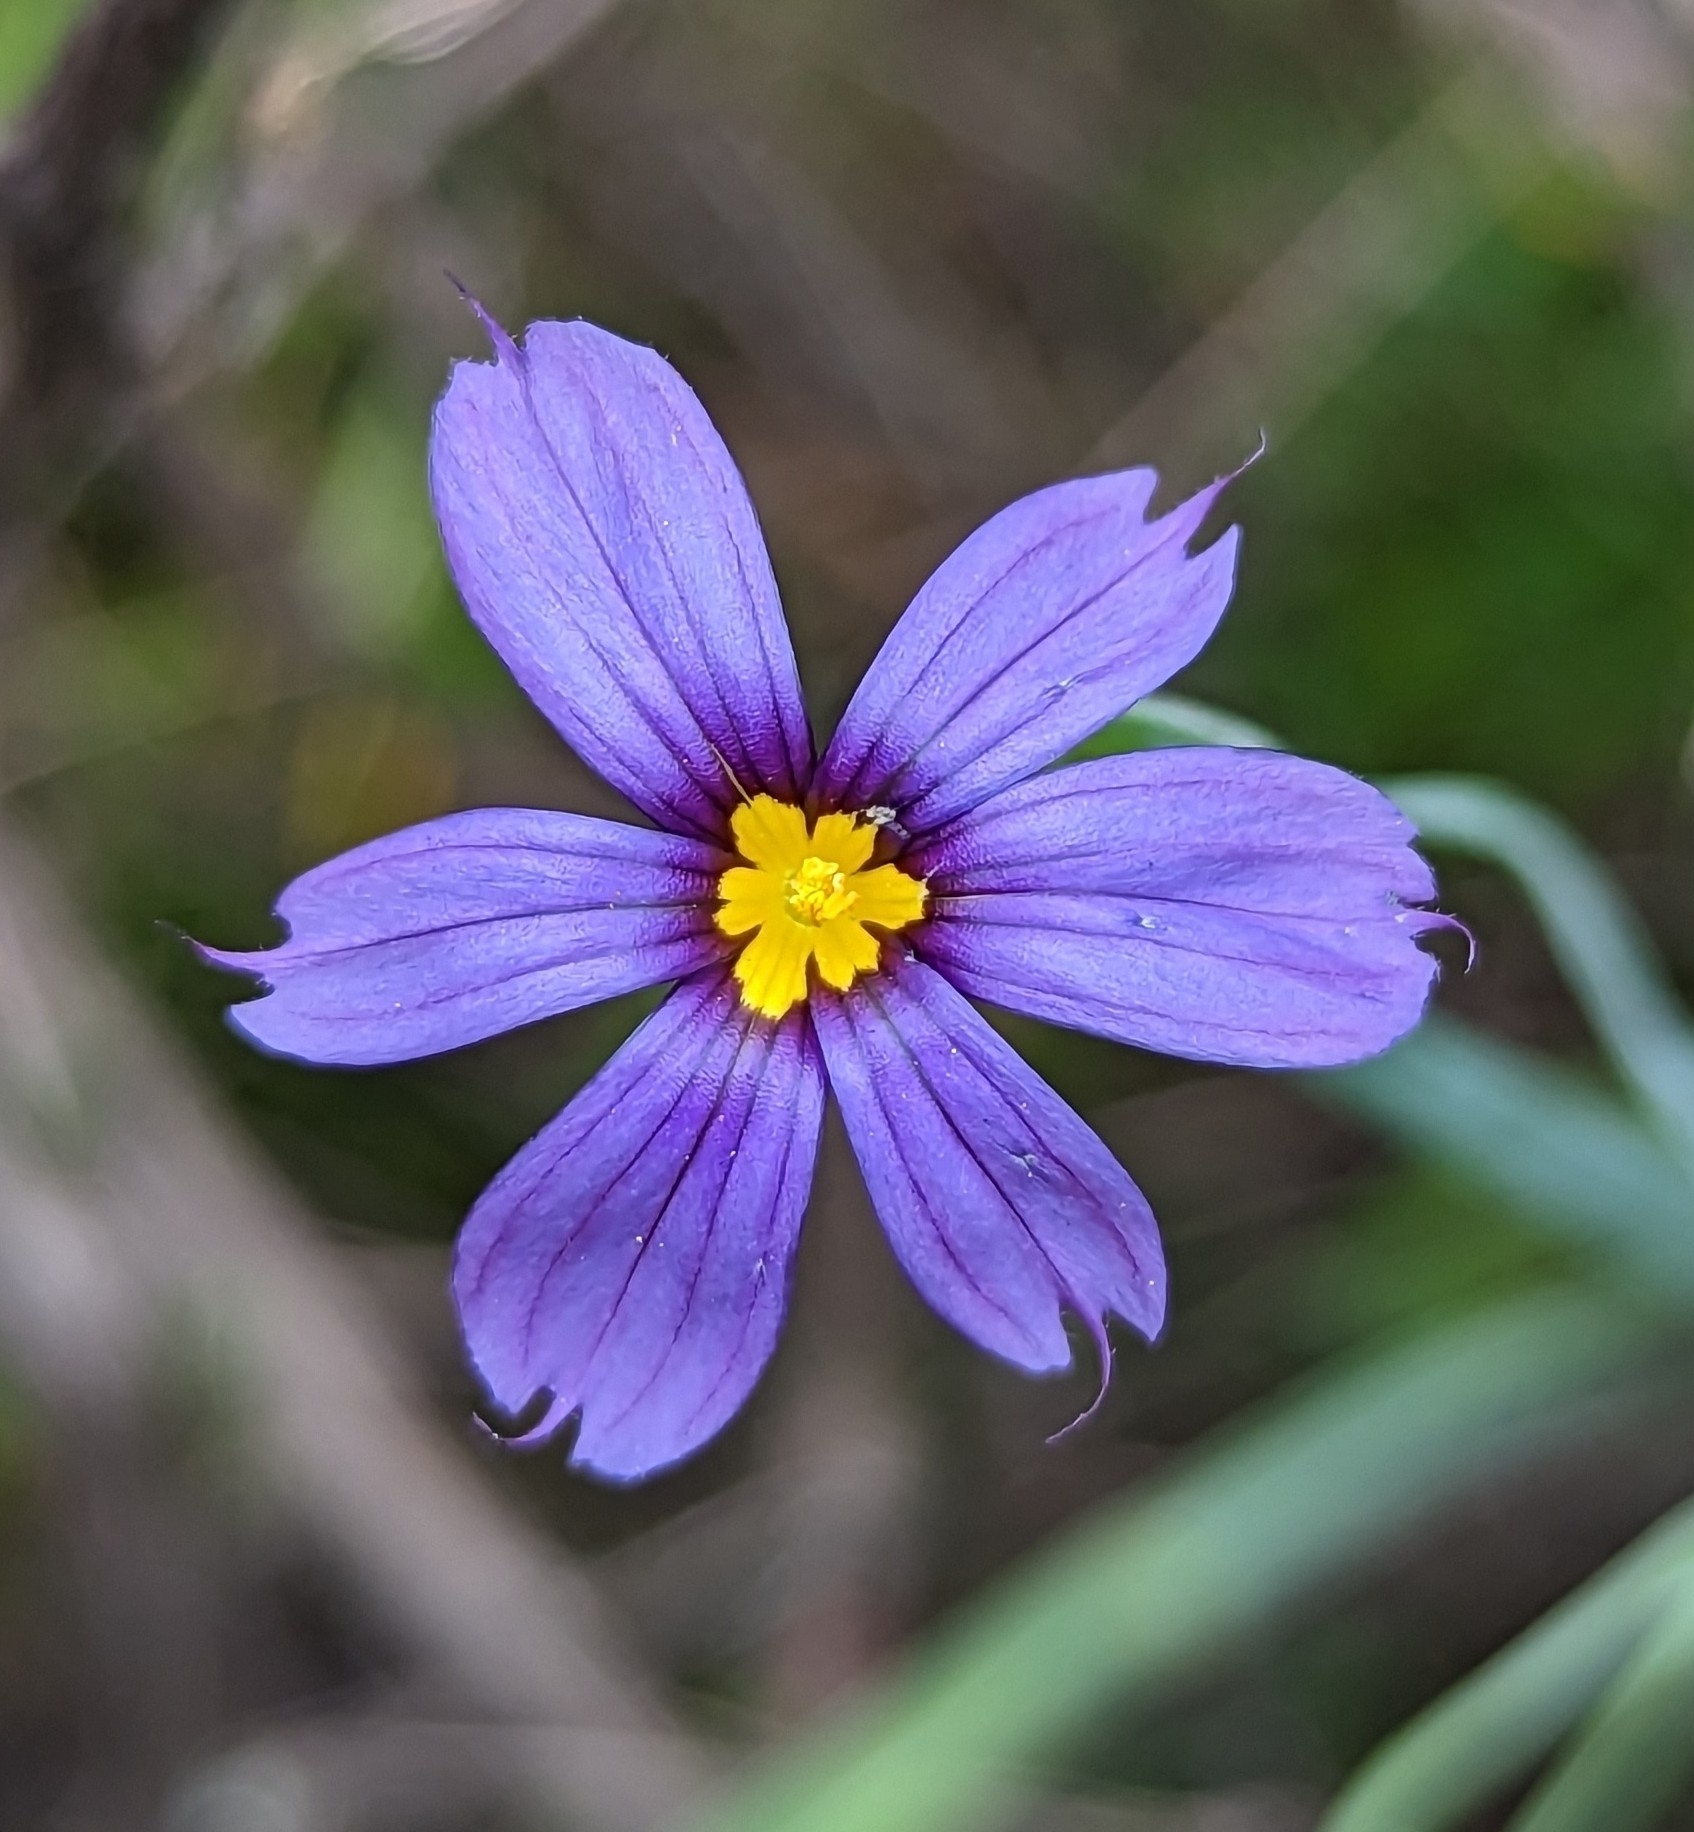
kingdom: Plantae
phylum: Tracheophyta
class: Liliopsida
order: Asparagales
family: Iridaceae
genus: Sisyrinchium
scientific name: Sisyrinchium bellum
